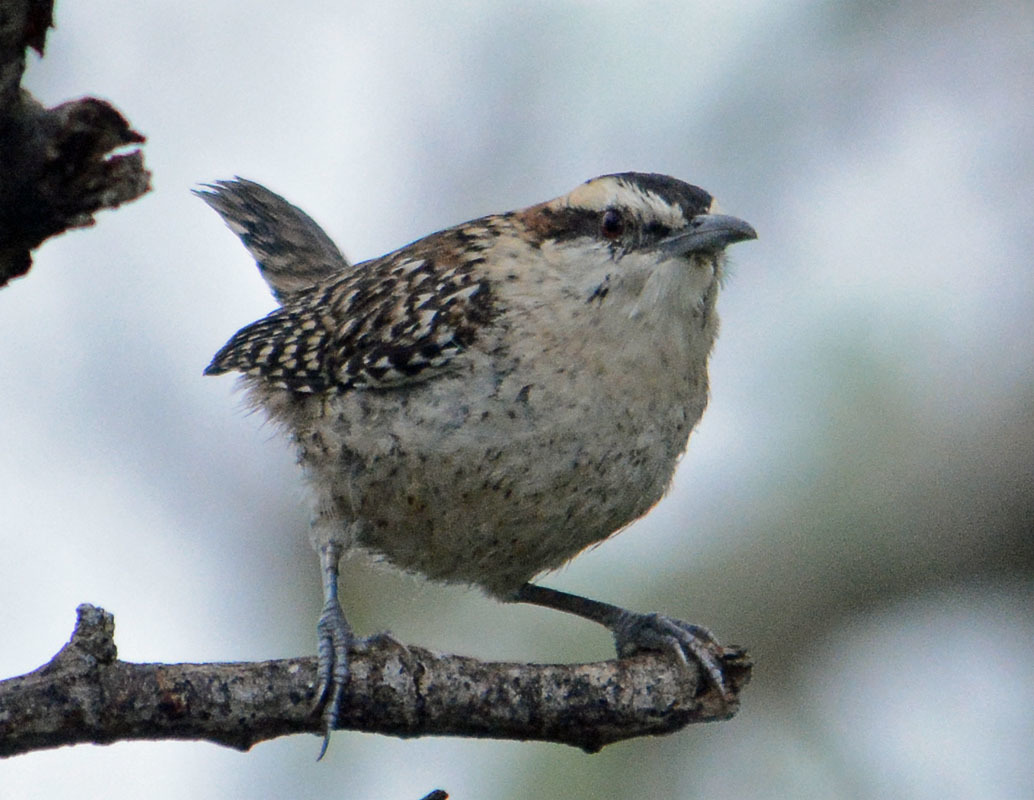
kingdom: Animalia
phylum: Chordata
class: Aves
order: Passeriformes
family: Troglodytidae
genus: Campylorhynchus
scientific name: Campylorhynchus rufinucha
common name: Rufous-naped wren
